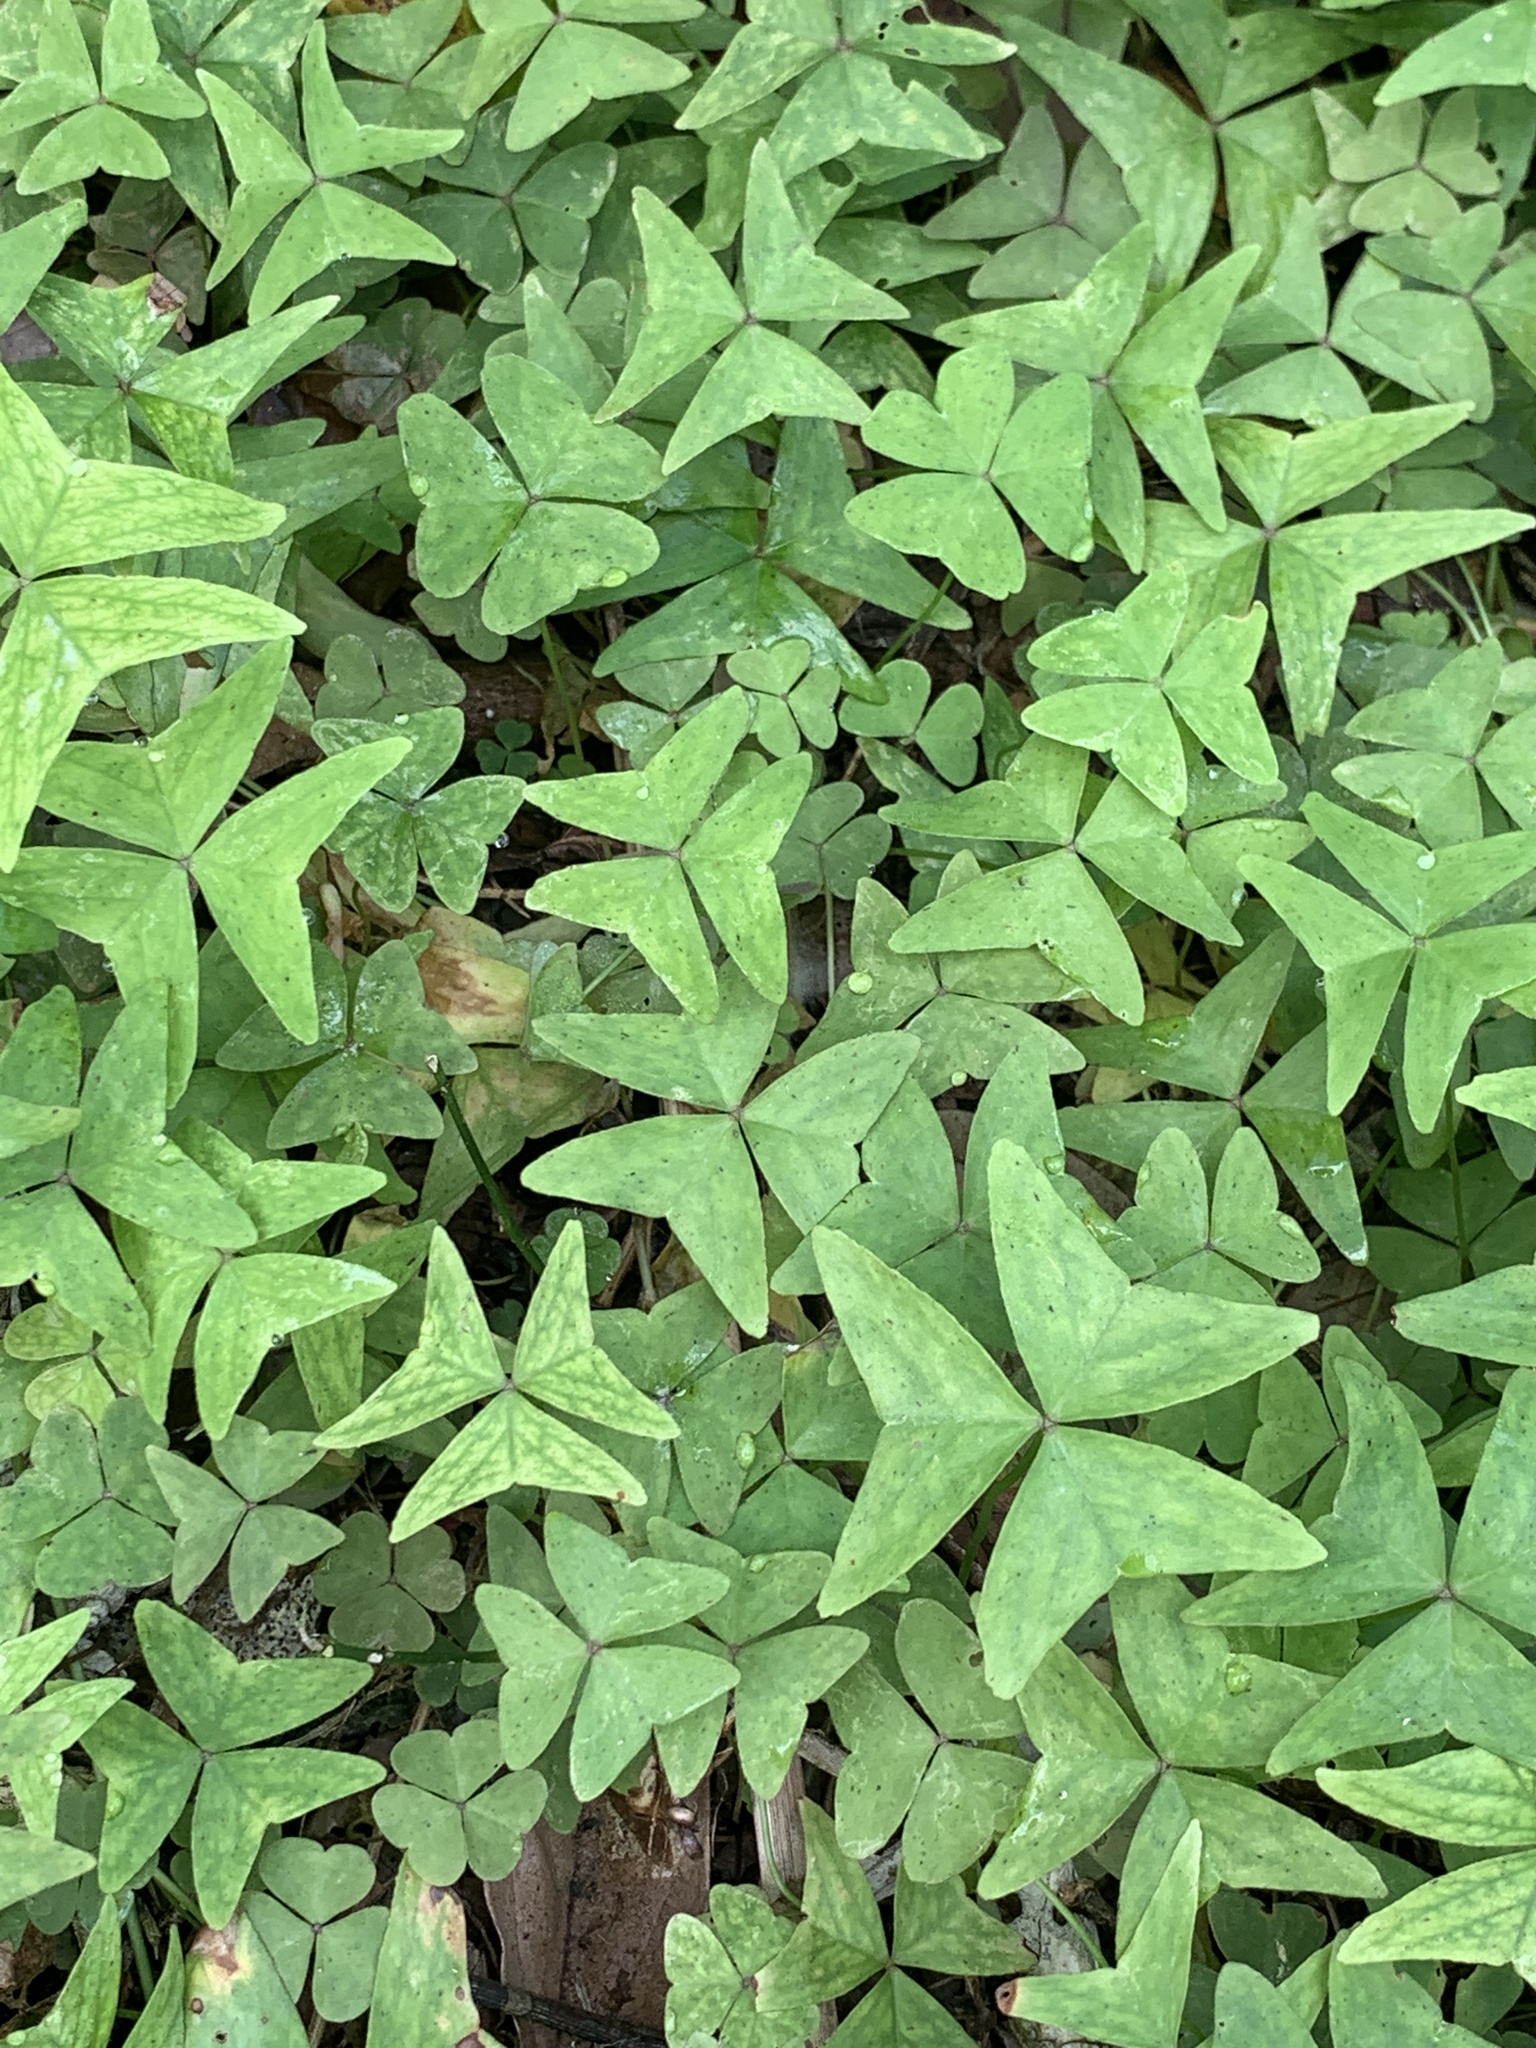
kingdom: Plantae
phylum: Tracheophyta
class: Magnoliopsida
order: Oxalidales
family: Oxalidaceae
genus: Oxalis
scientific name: Oxalis intermedia
